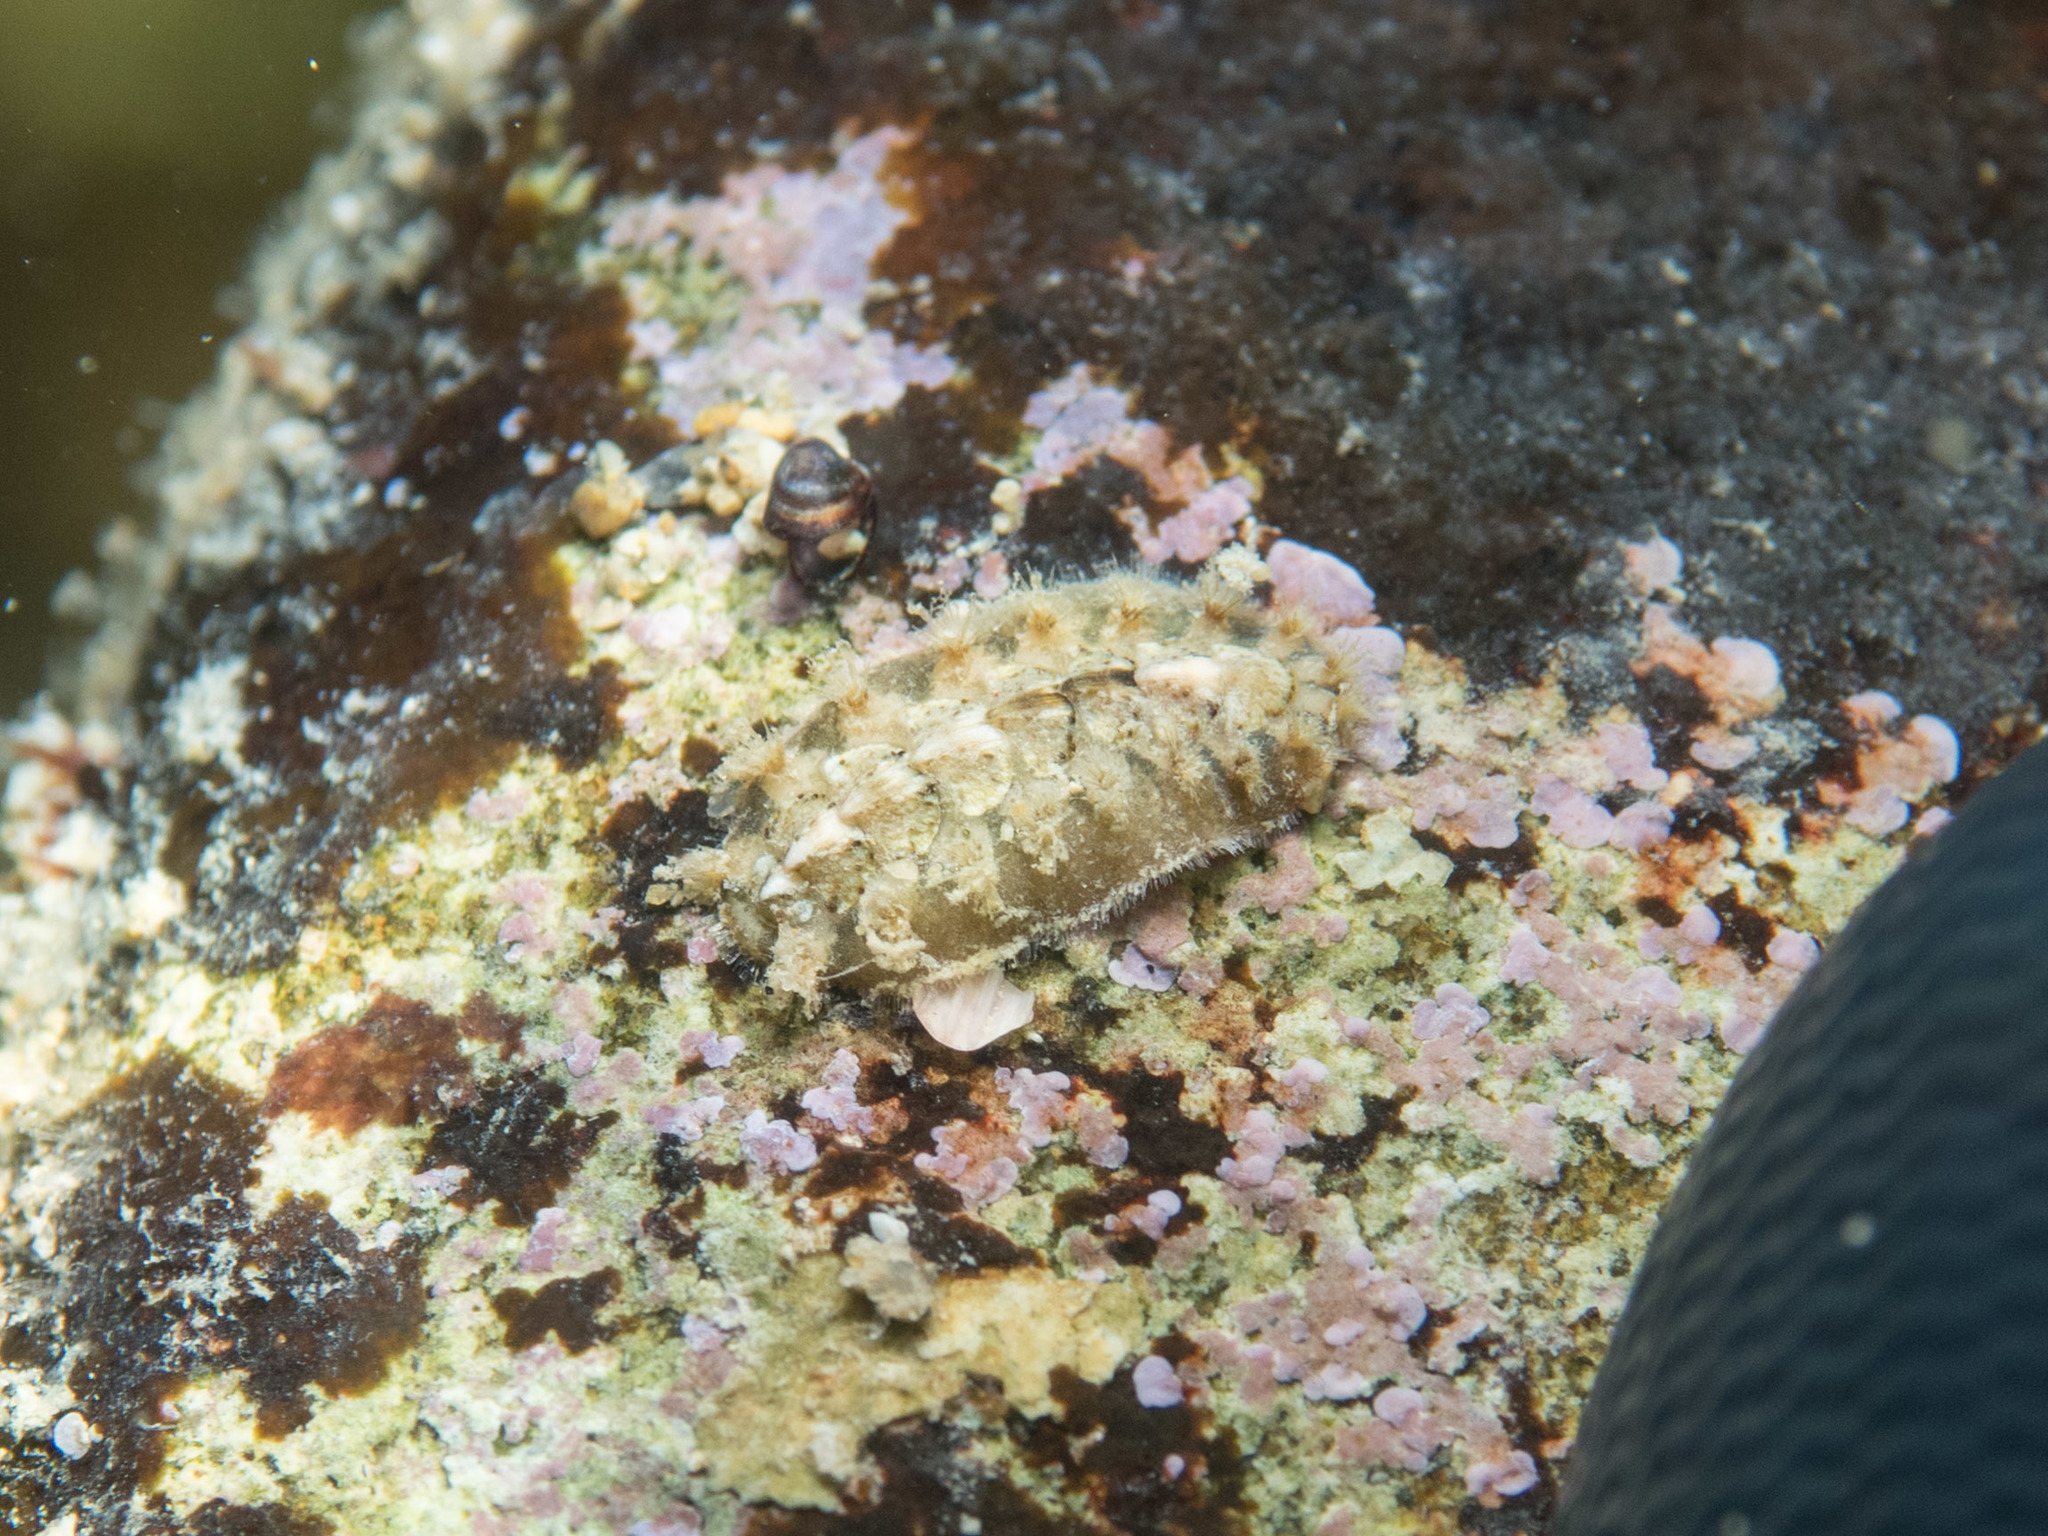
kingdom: Animalia
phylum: Mollusca
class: Polyplacophora
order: Chitonida
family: Acanthochitonidae
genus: Acanthochitona
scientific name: Acanthochitona crinita
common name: Bristly mail chiton
